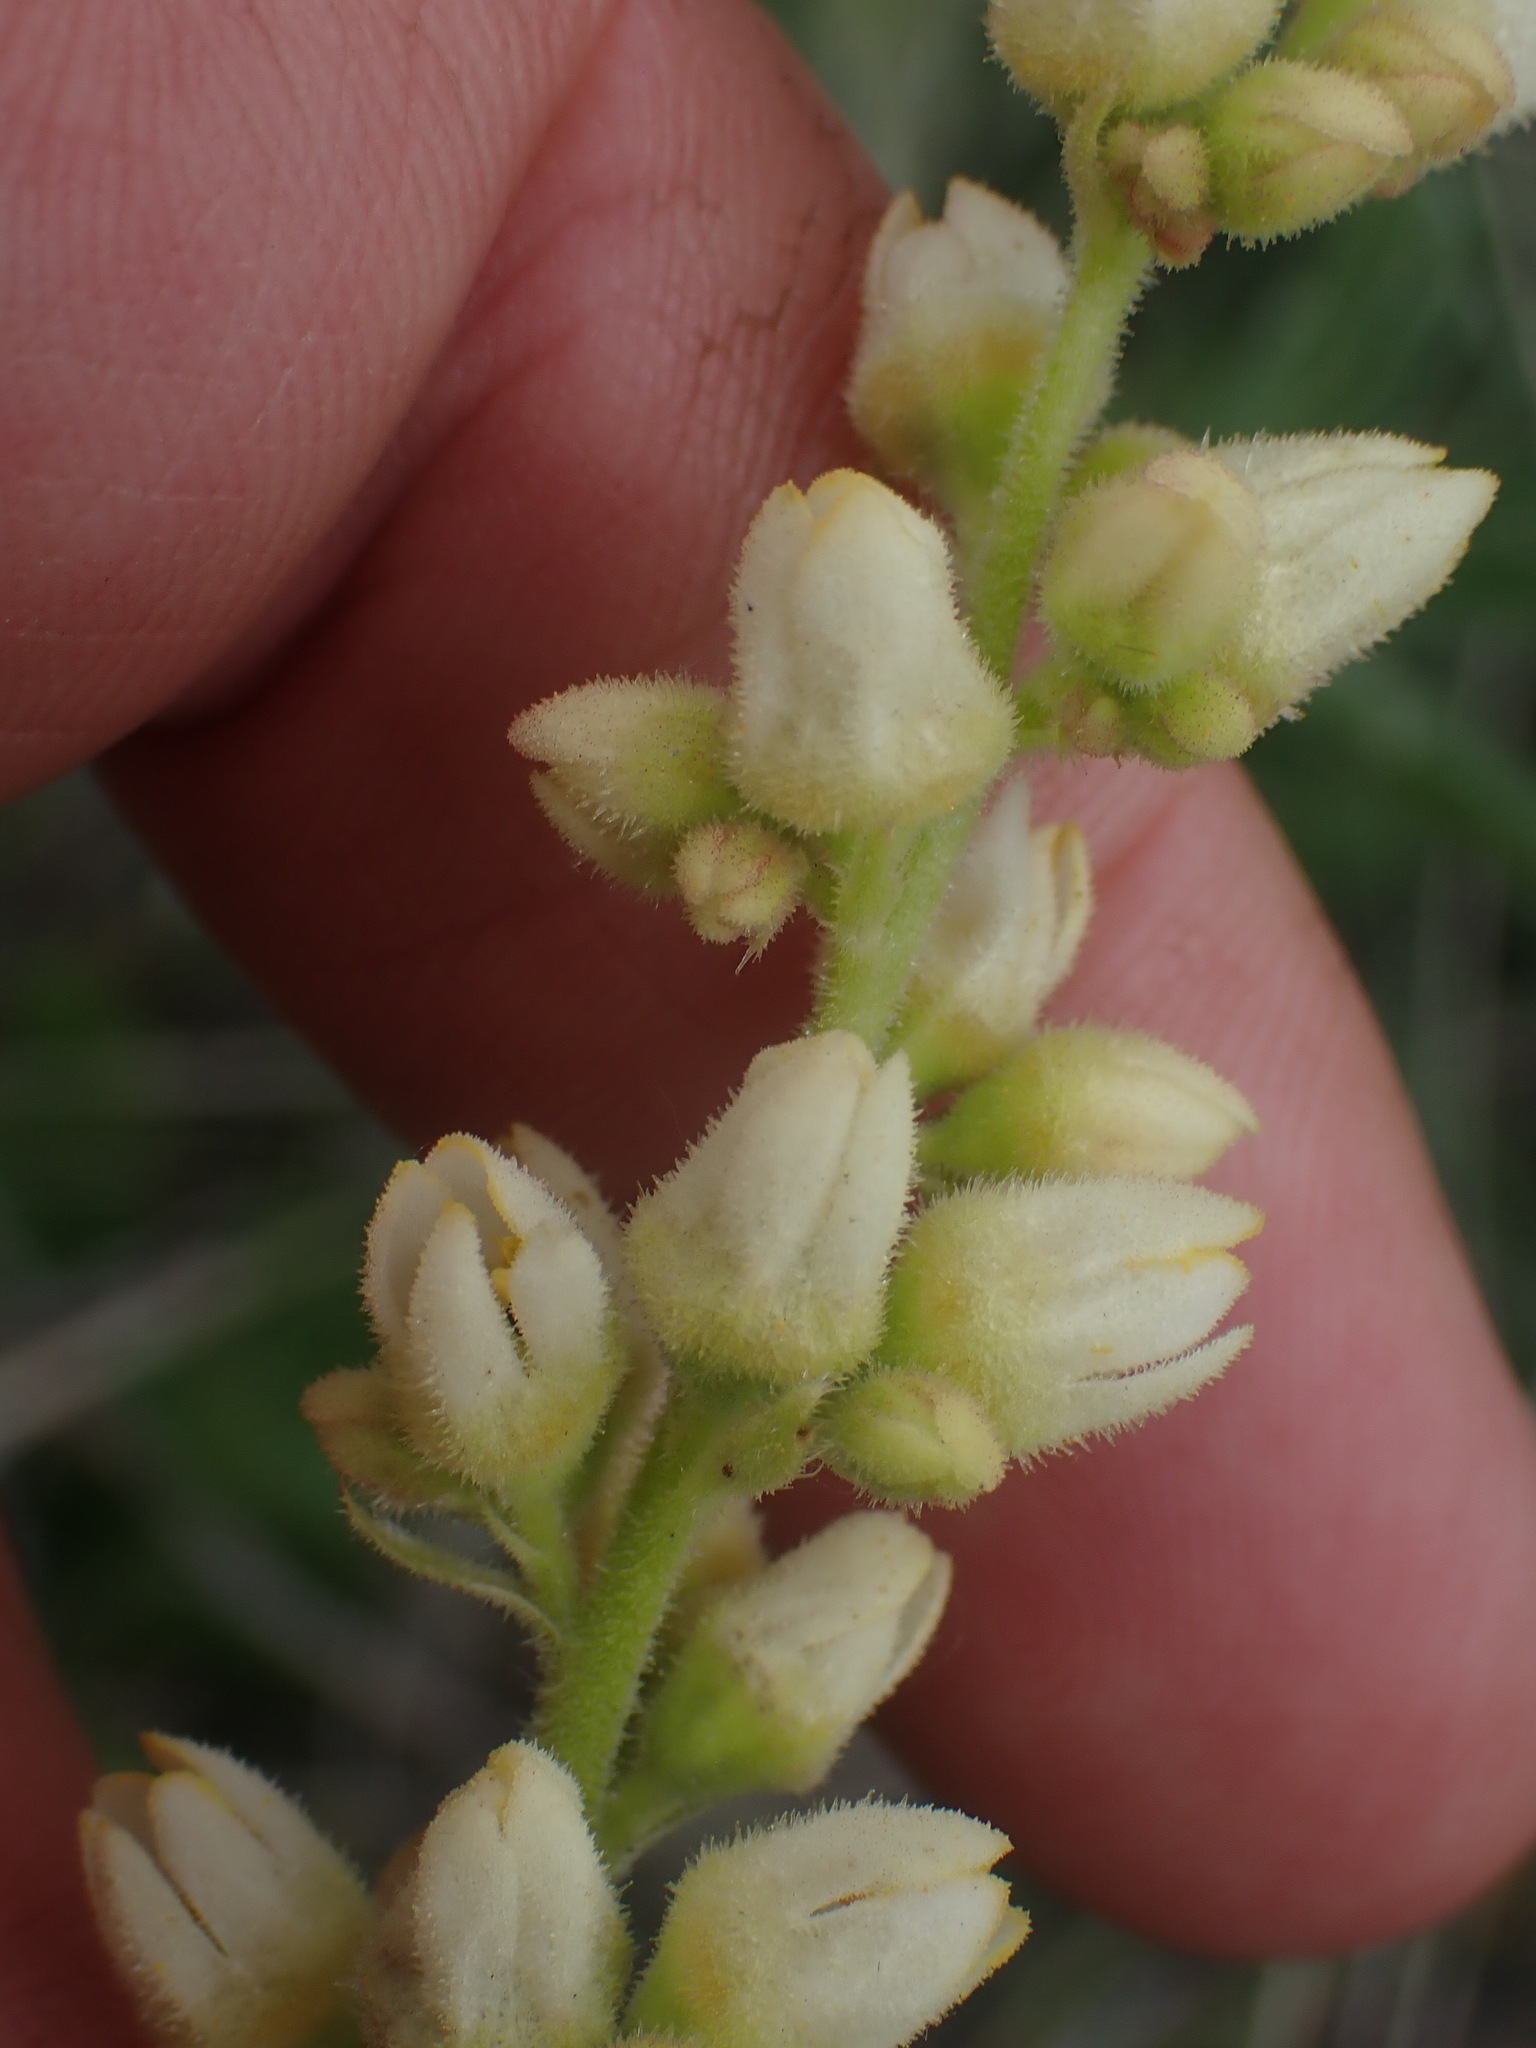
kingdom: Plantae
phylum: Tracheophyta
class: Magnoliopsida
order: Saxifragales
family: Saxifragaceae
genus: Heuchera
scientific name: Heuchera cylindrica
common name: Mat alumroot
